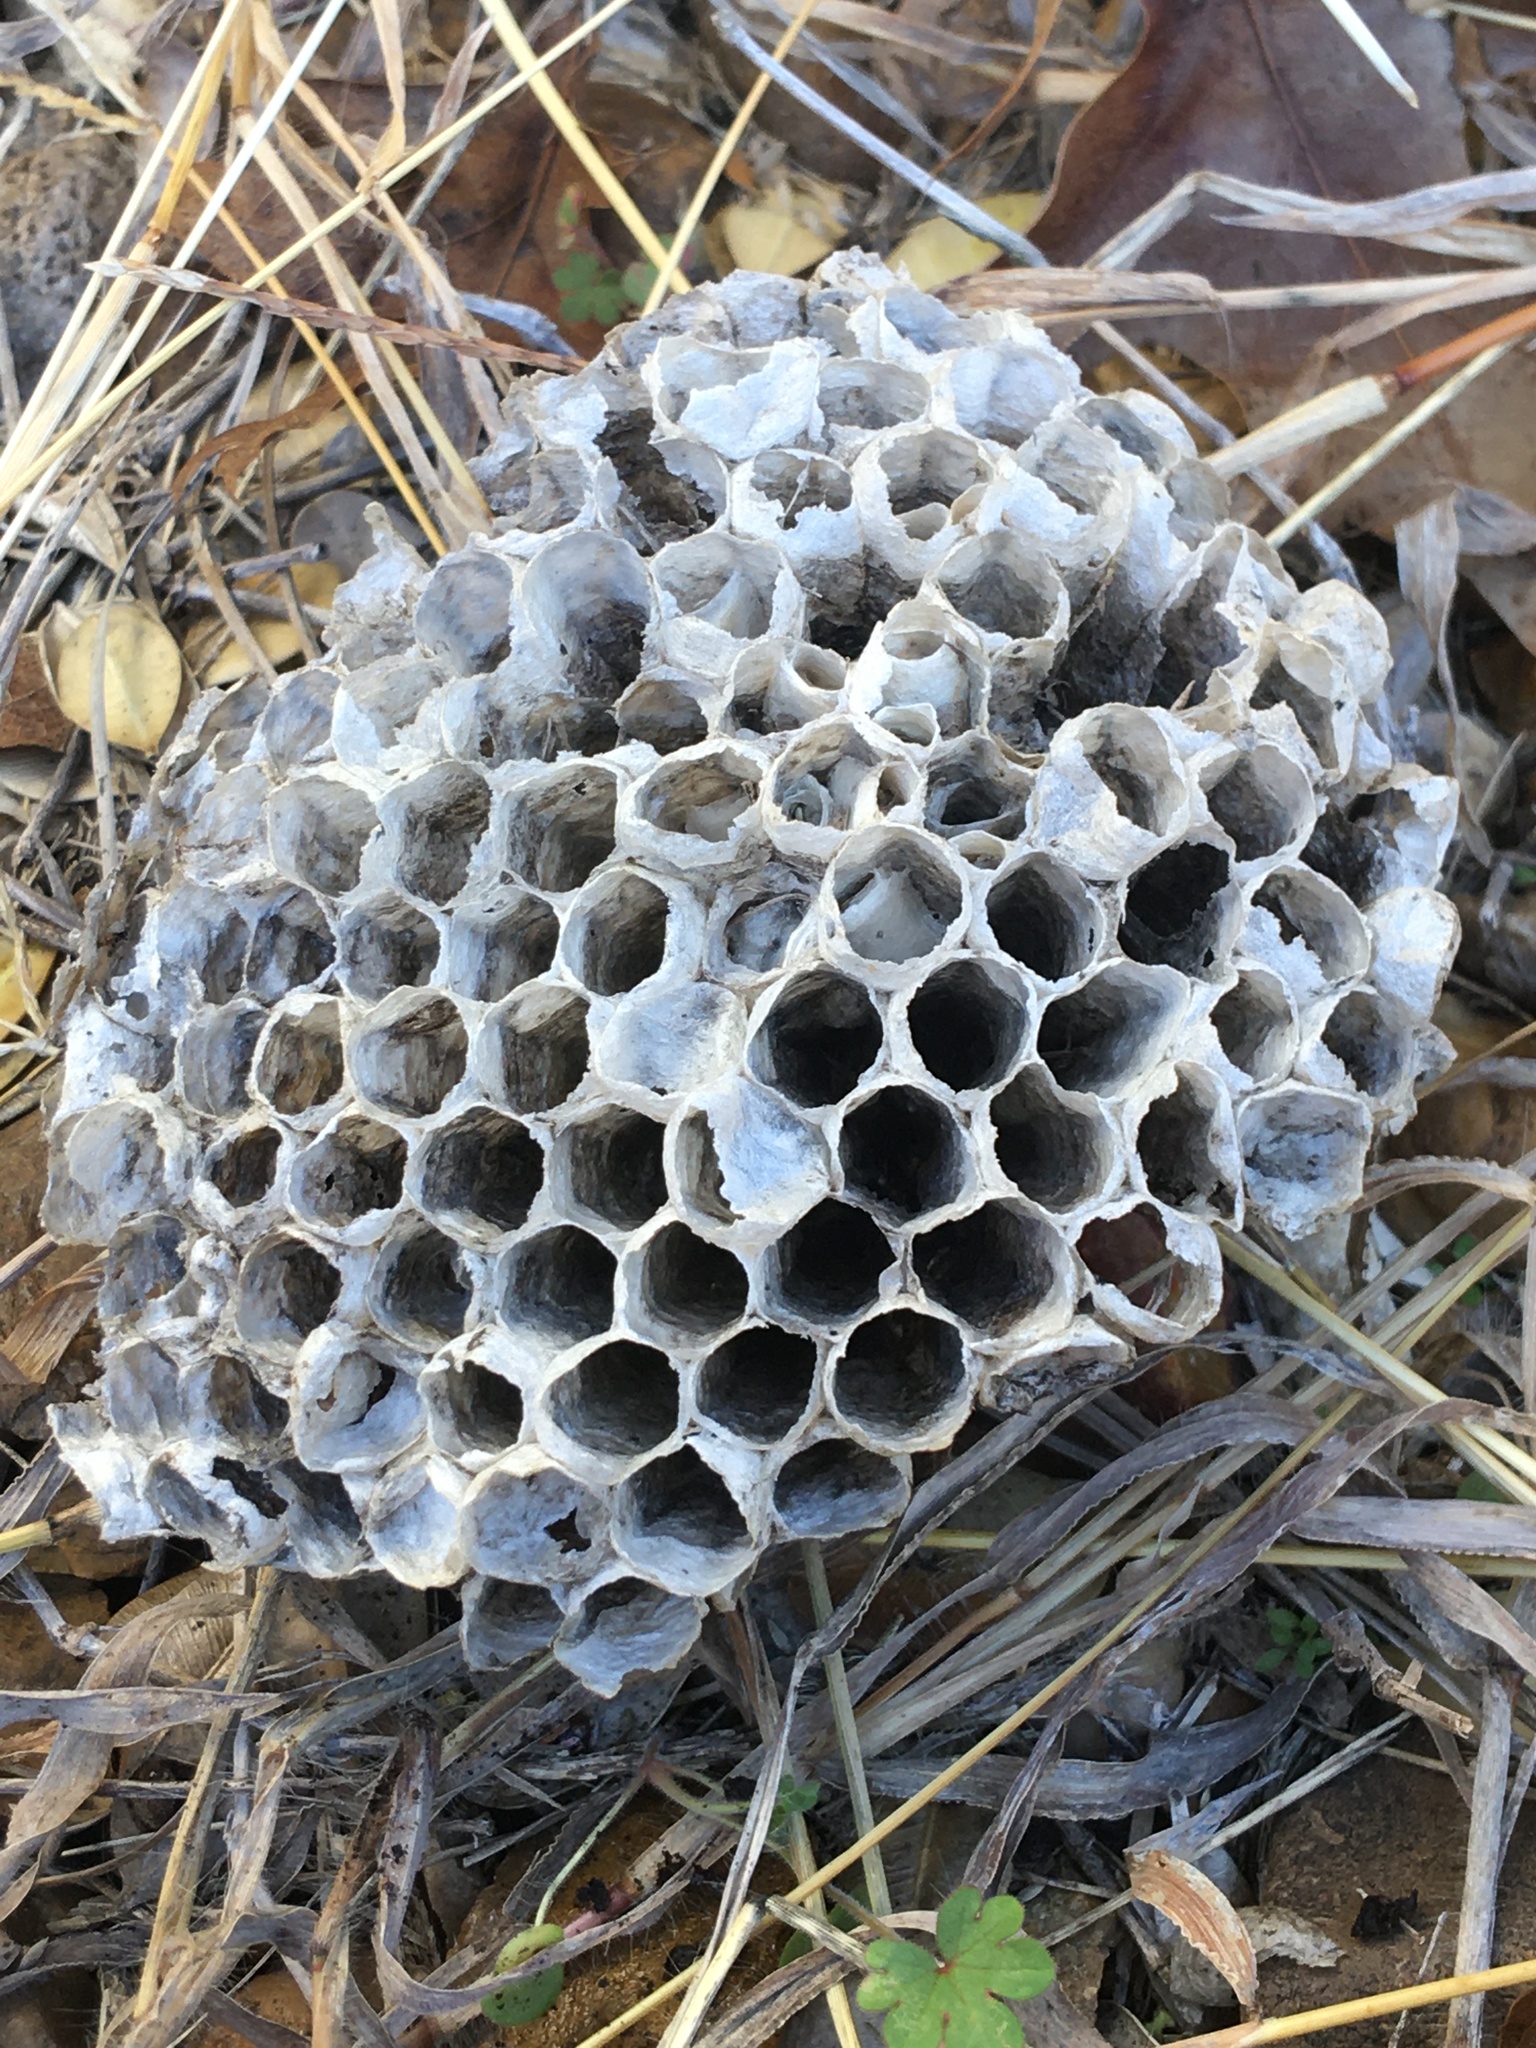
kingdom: Animalia
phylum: Arthropoda
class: Insecta
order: Hymenoptera
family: Vespidae
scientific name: Vespidae
